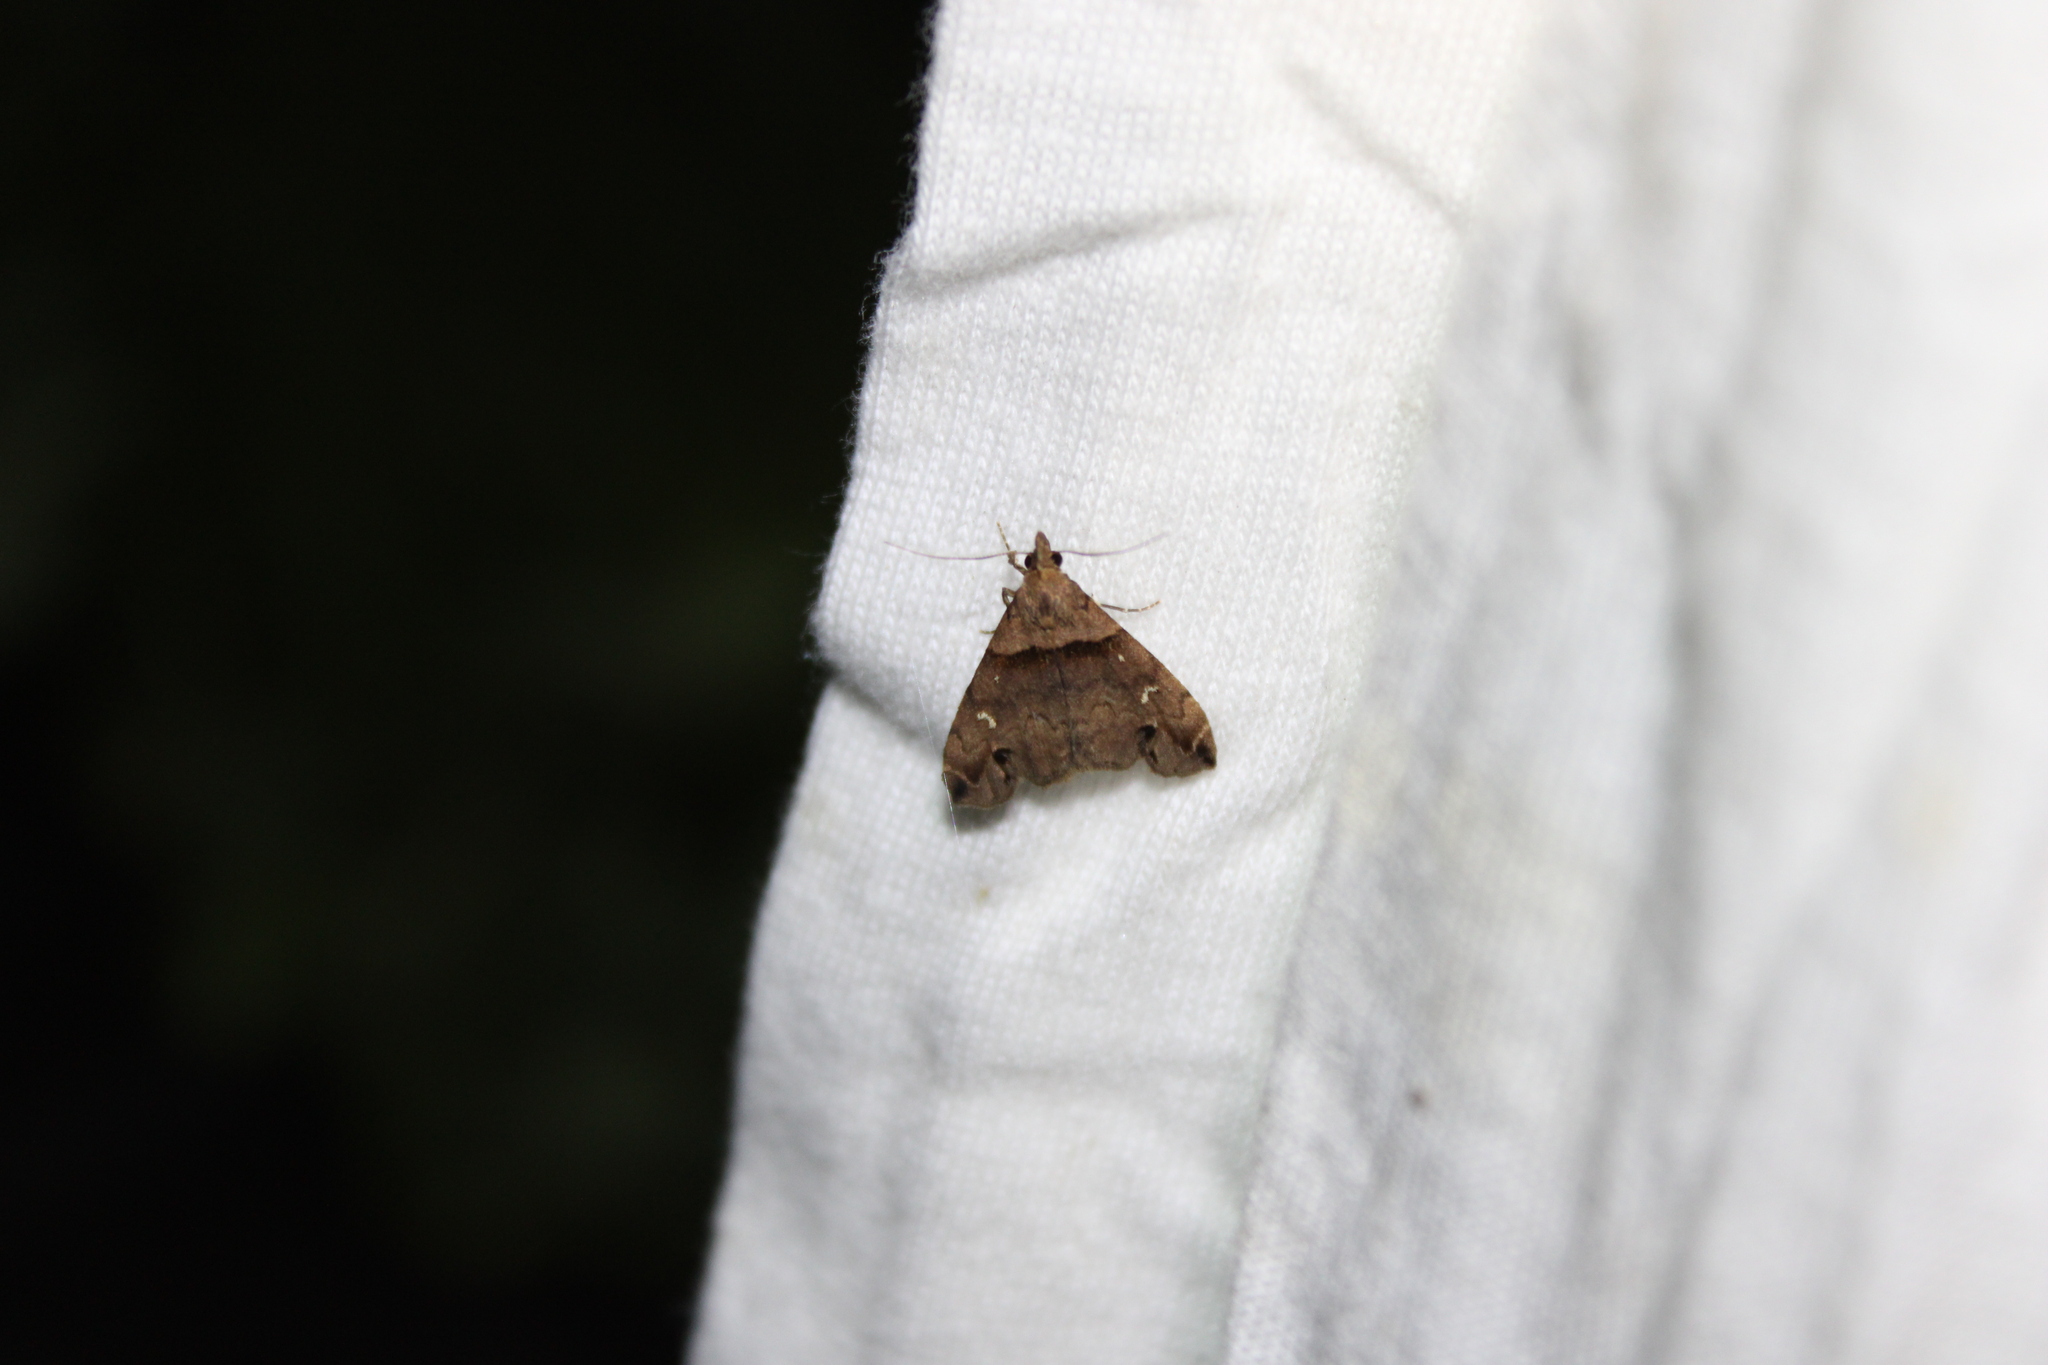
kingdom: Animalia
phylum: Arthropoda
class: Insecta
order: Lepidoptera
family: Erebidae
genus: Lascoria
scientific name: Lascoria ambigualis
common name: Ambiguous moth
